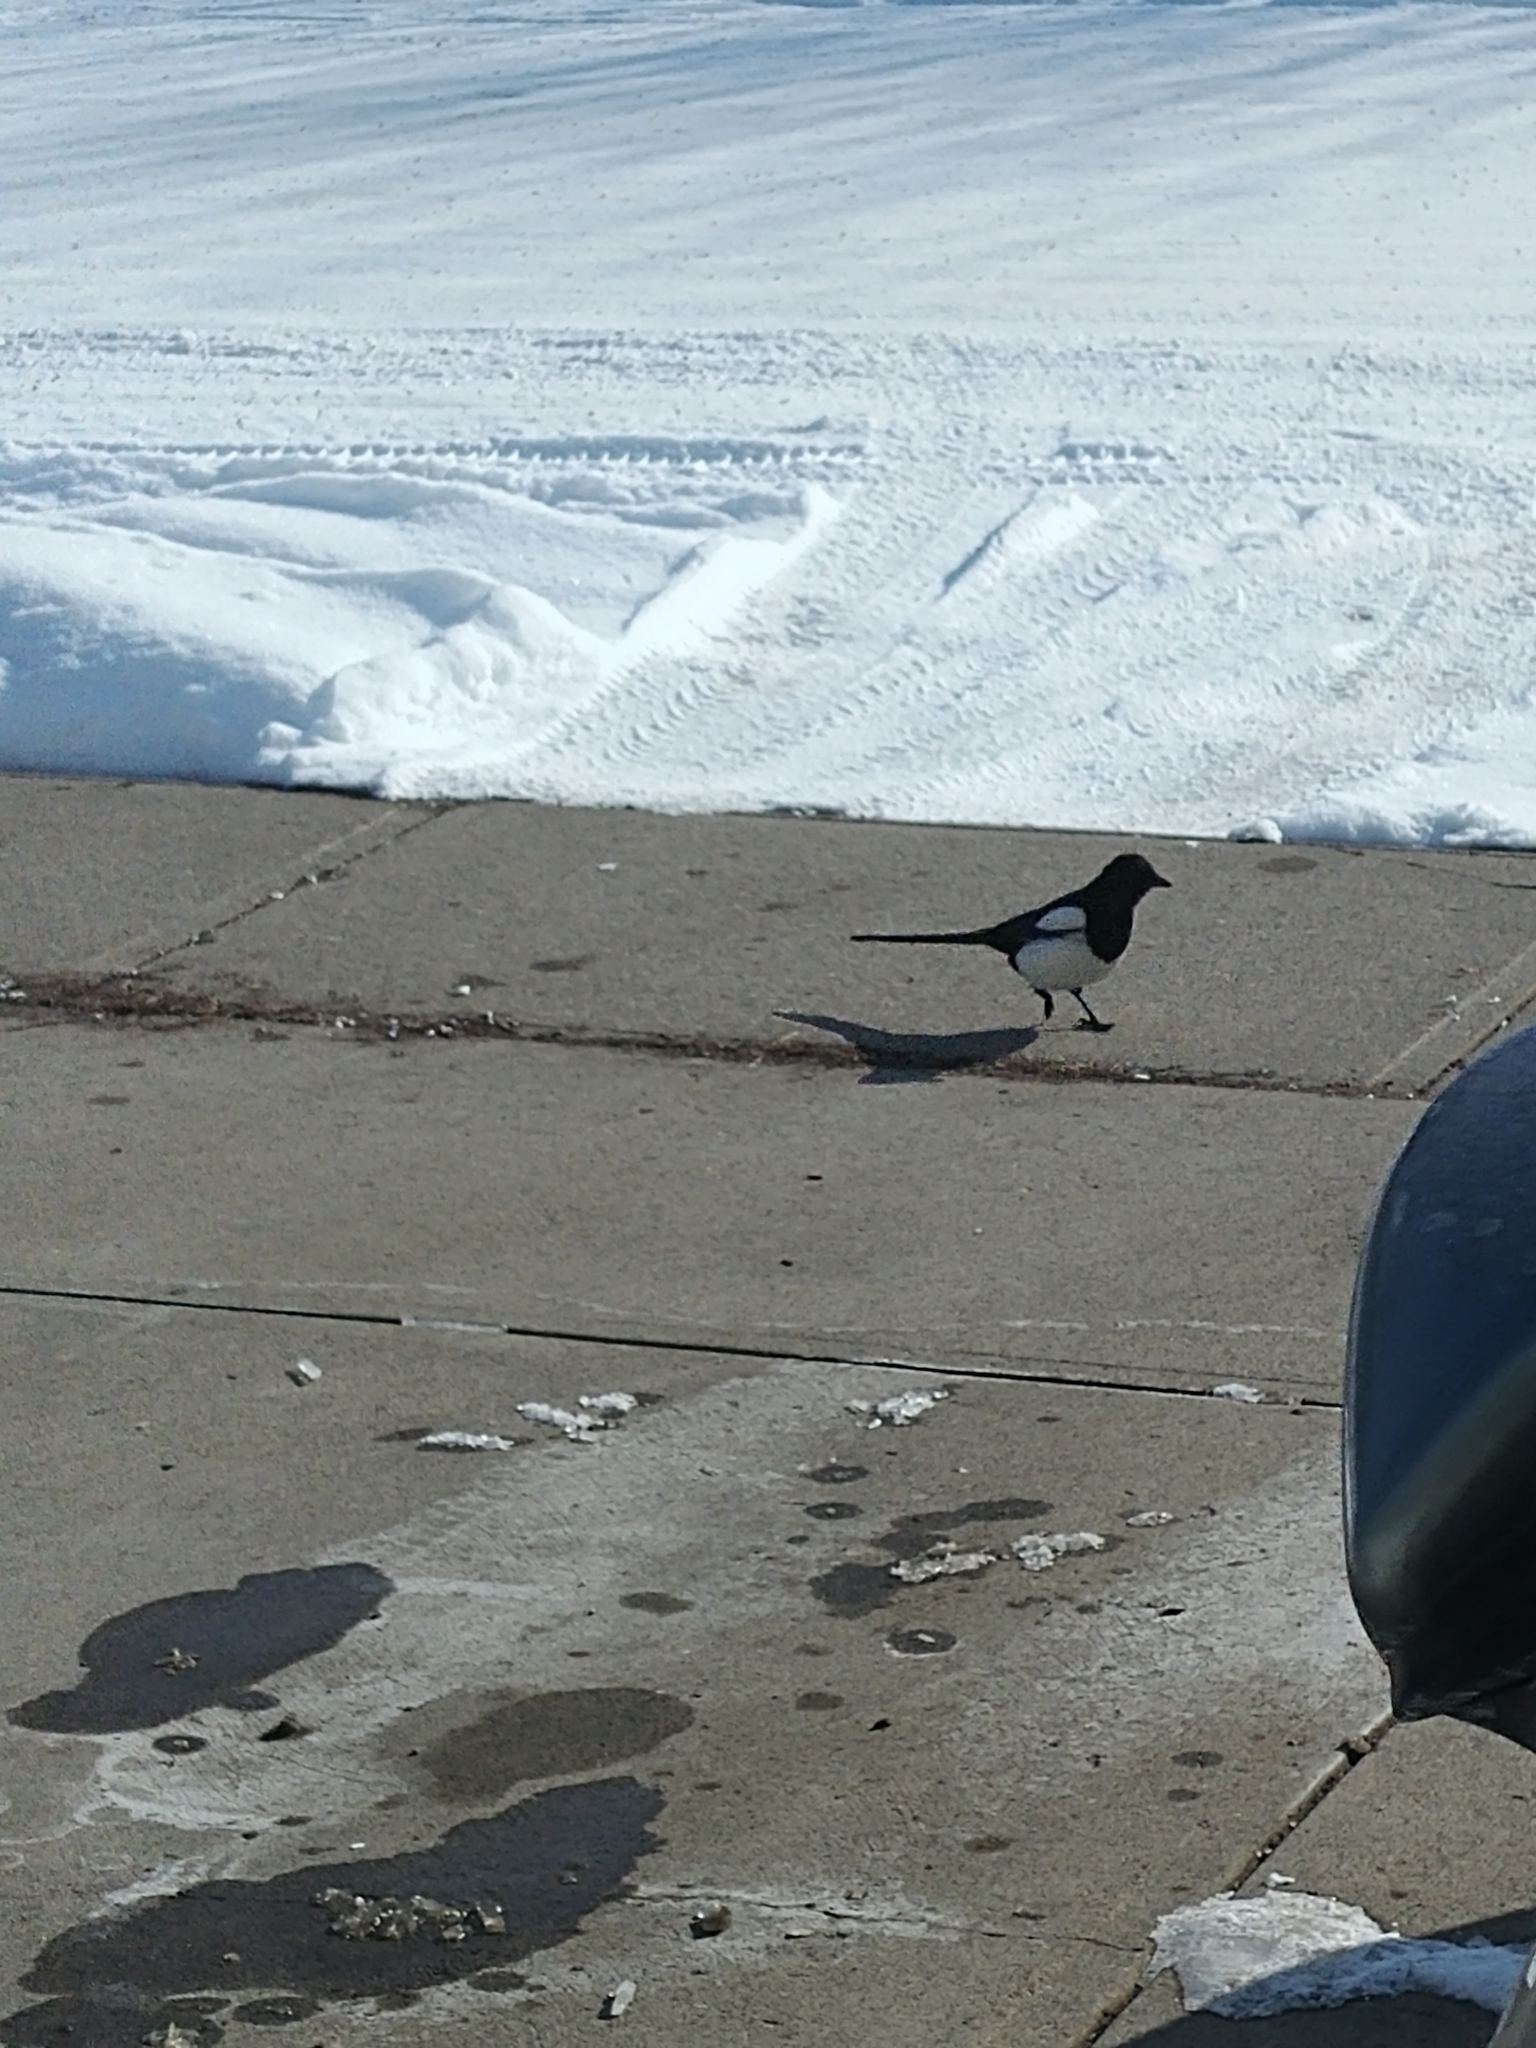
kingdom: Animalia
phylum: Chordata
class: Aves
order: Passeriformes
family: Corvidae
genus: Pica
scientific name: Pica hudsonia
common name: Black-billed magpie
